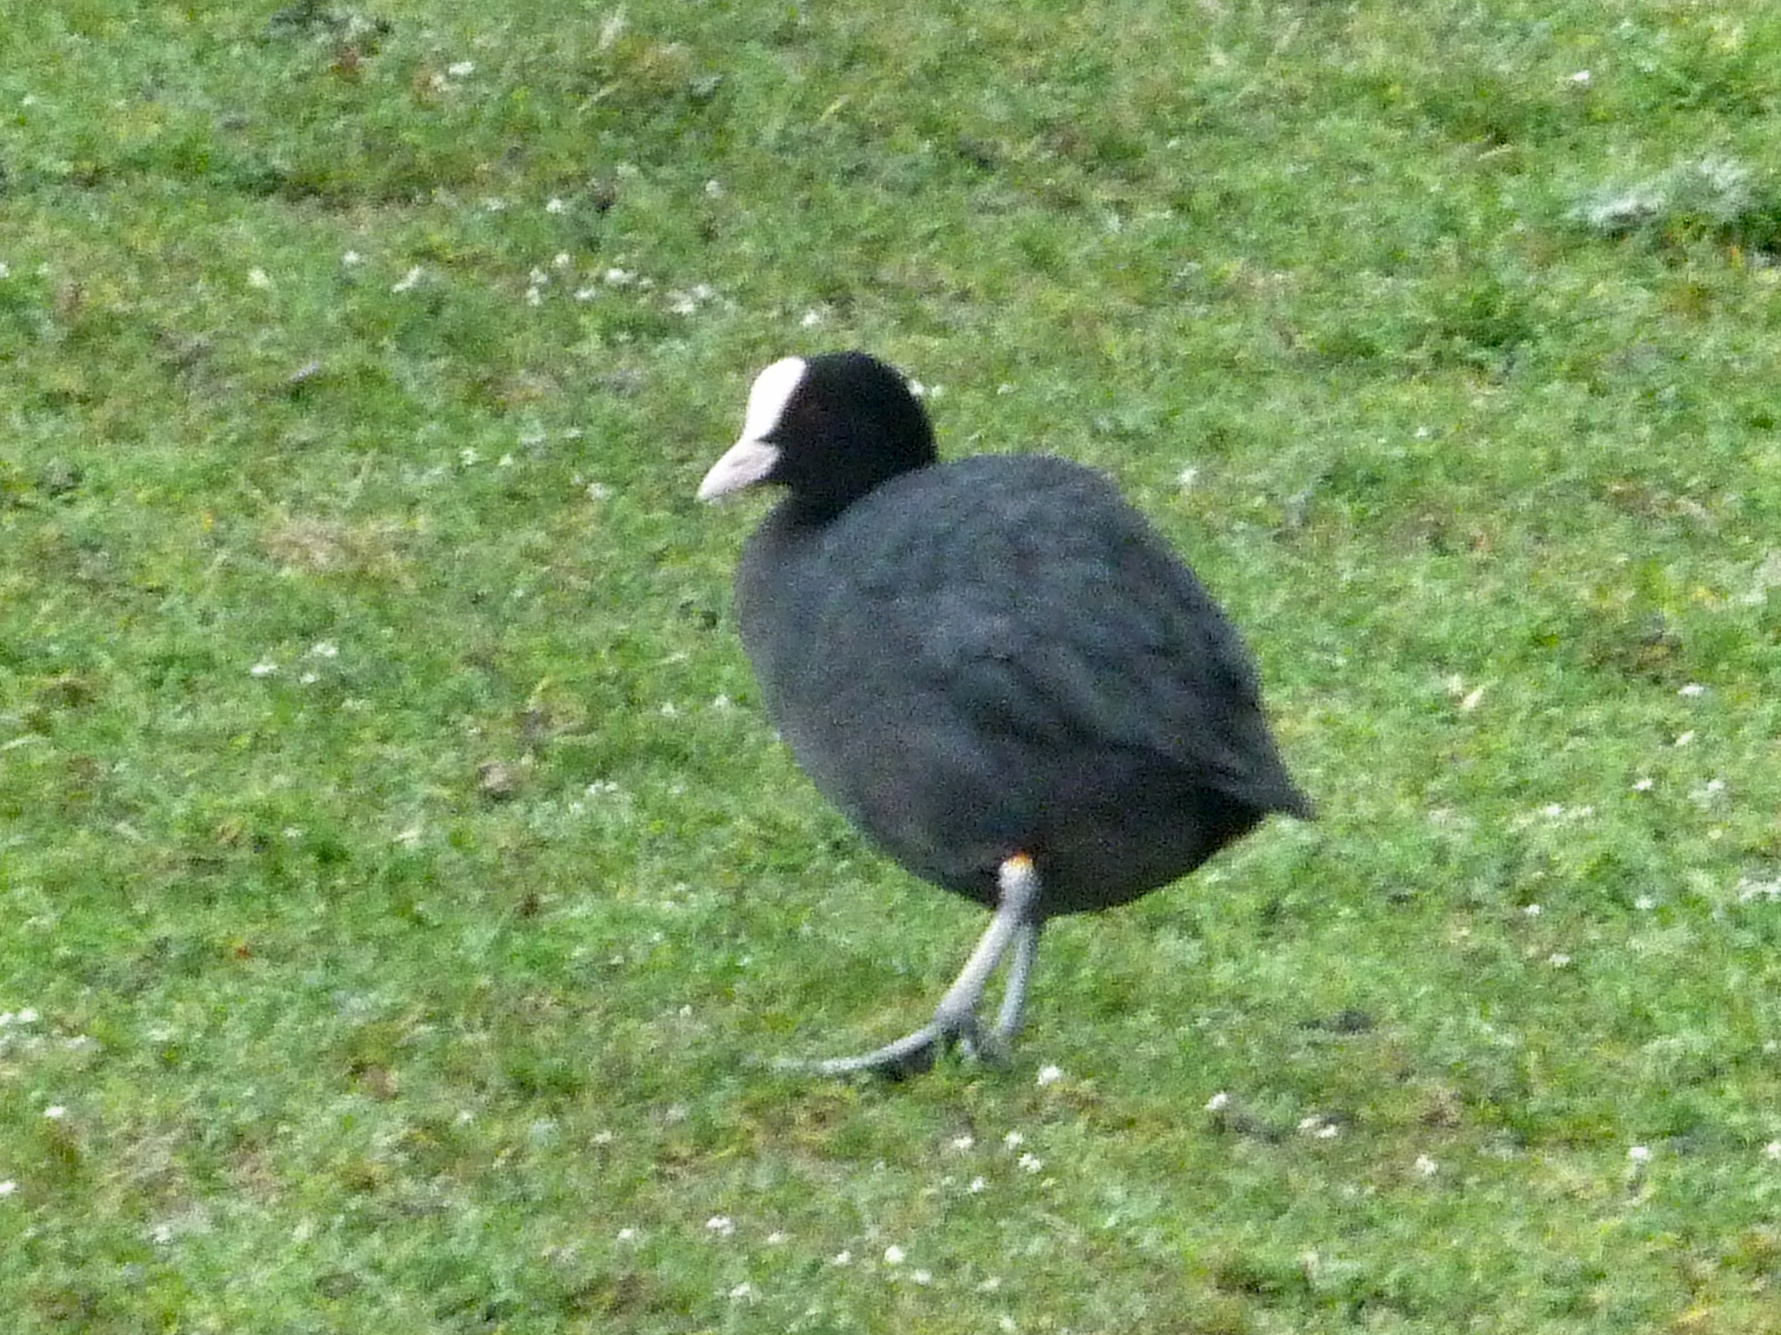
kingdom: Animalia
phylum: Chordata
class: Aves
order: Gruiformes
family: Rallidae
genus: Fulica
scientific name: Fulica atra
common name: Eurasian coot
